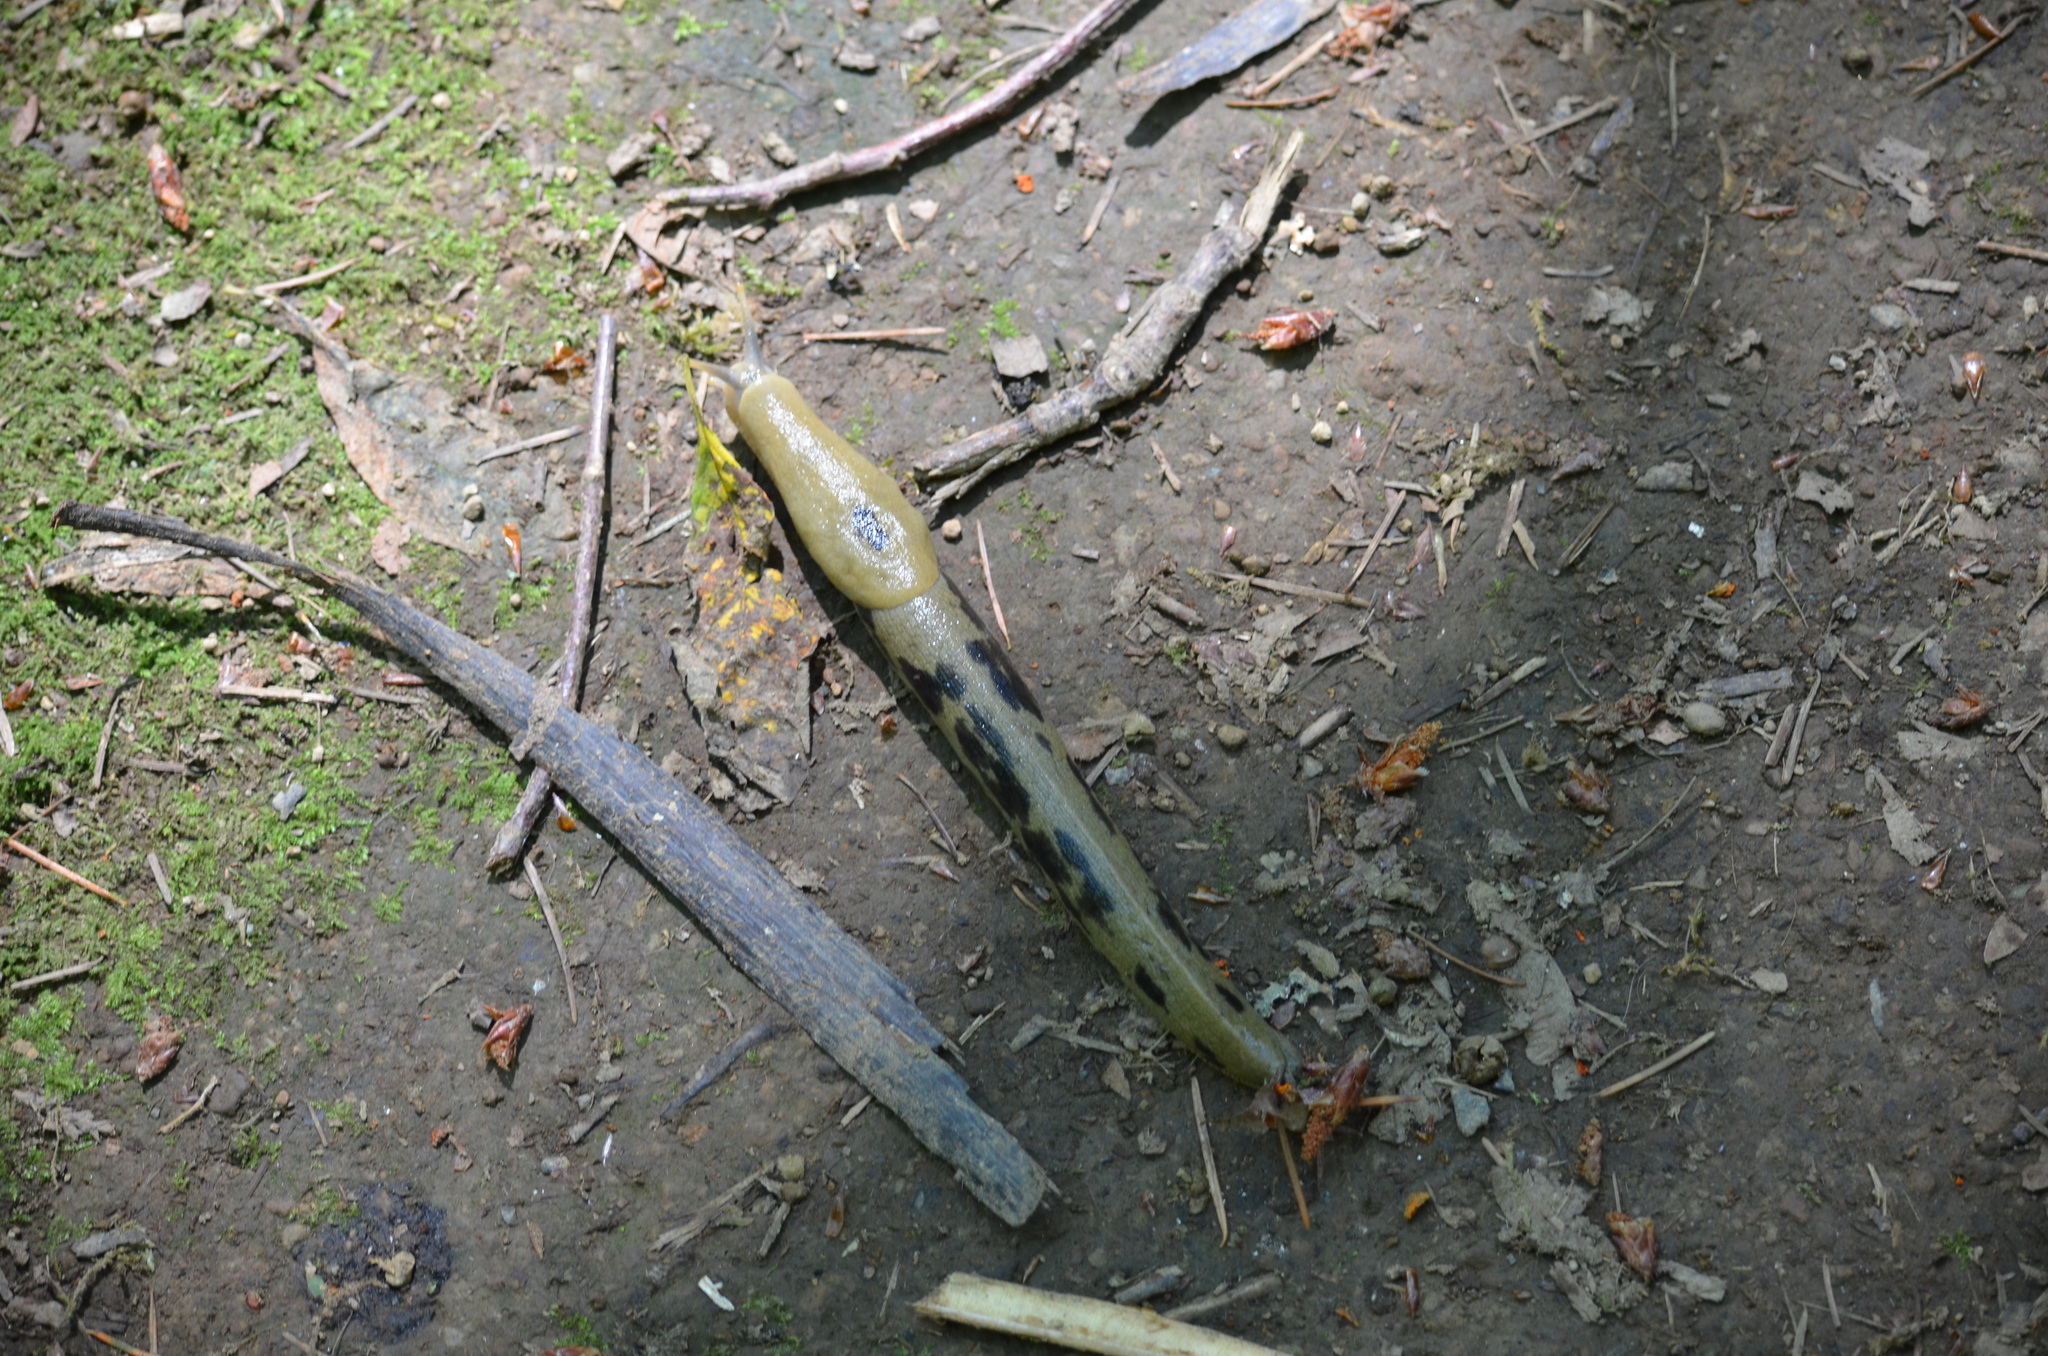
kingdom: Animalia
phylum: Mollusca
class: Gastropoda
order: Stylommatophora
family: Ariolimacidae
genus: Ariolimax
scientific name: Ariolimax columbianus
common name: Pacific banana slug
